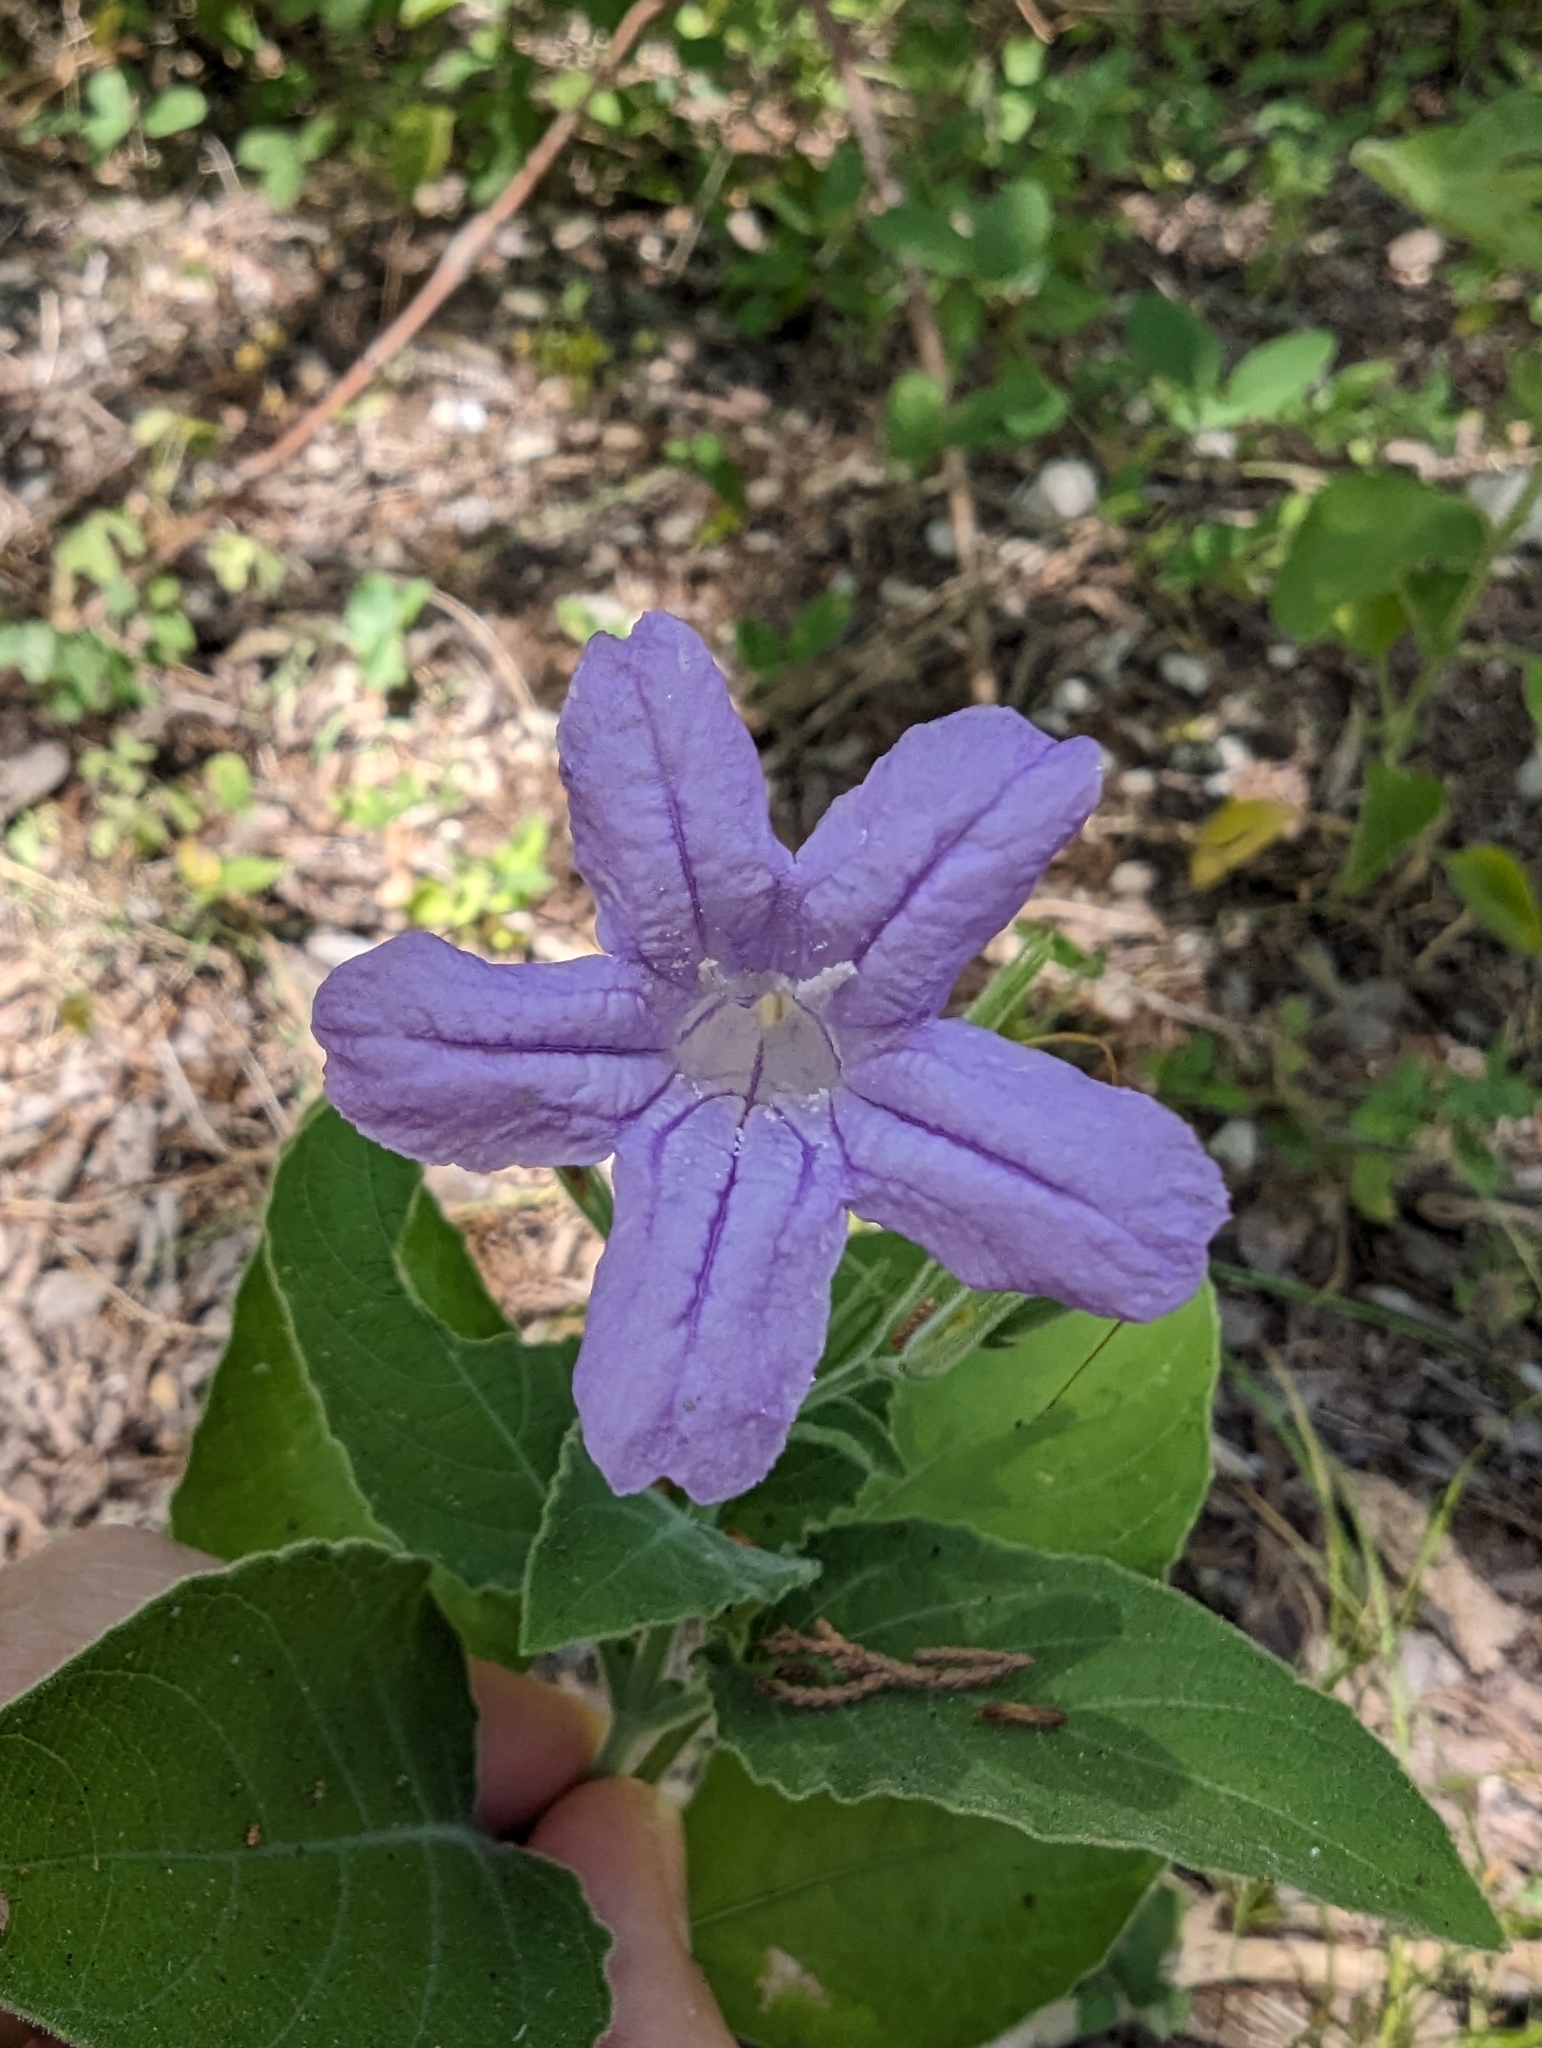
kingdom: Plantae
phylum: Tracheophyta
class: Magnoliopsida
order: Lamiales
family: Acanthaceae
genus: Ruellia
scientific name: Ruellia ciliatiflora
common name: Hairyflower wild petunia
